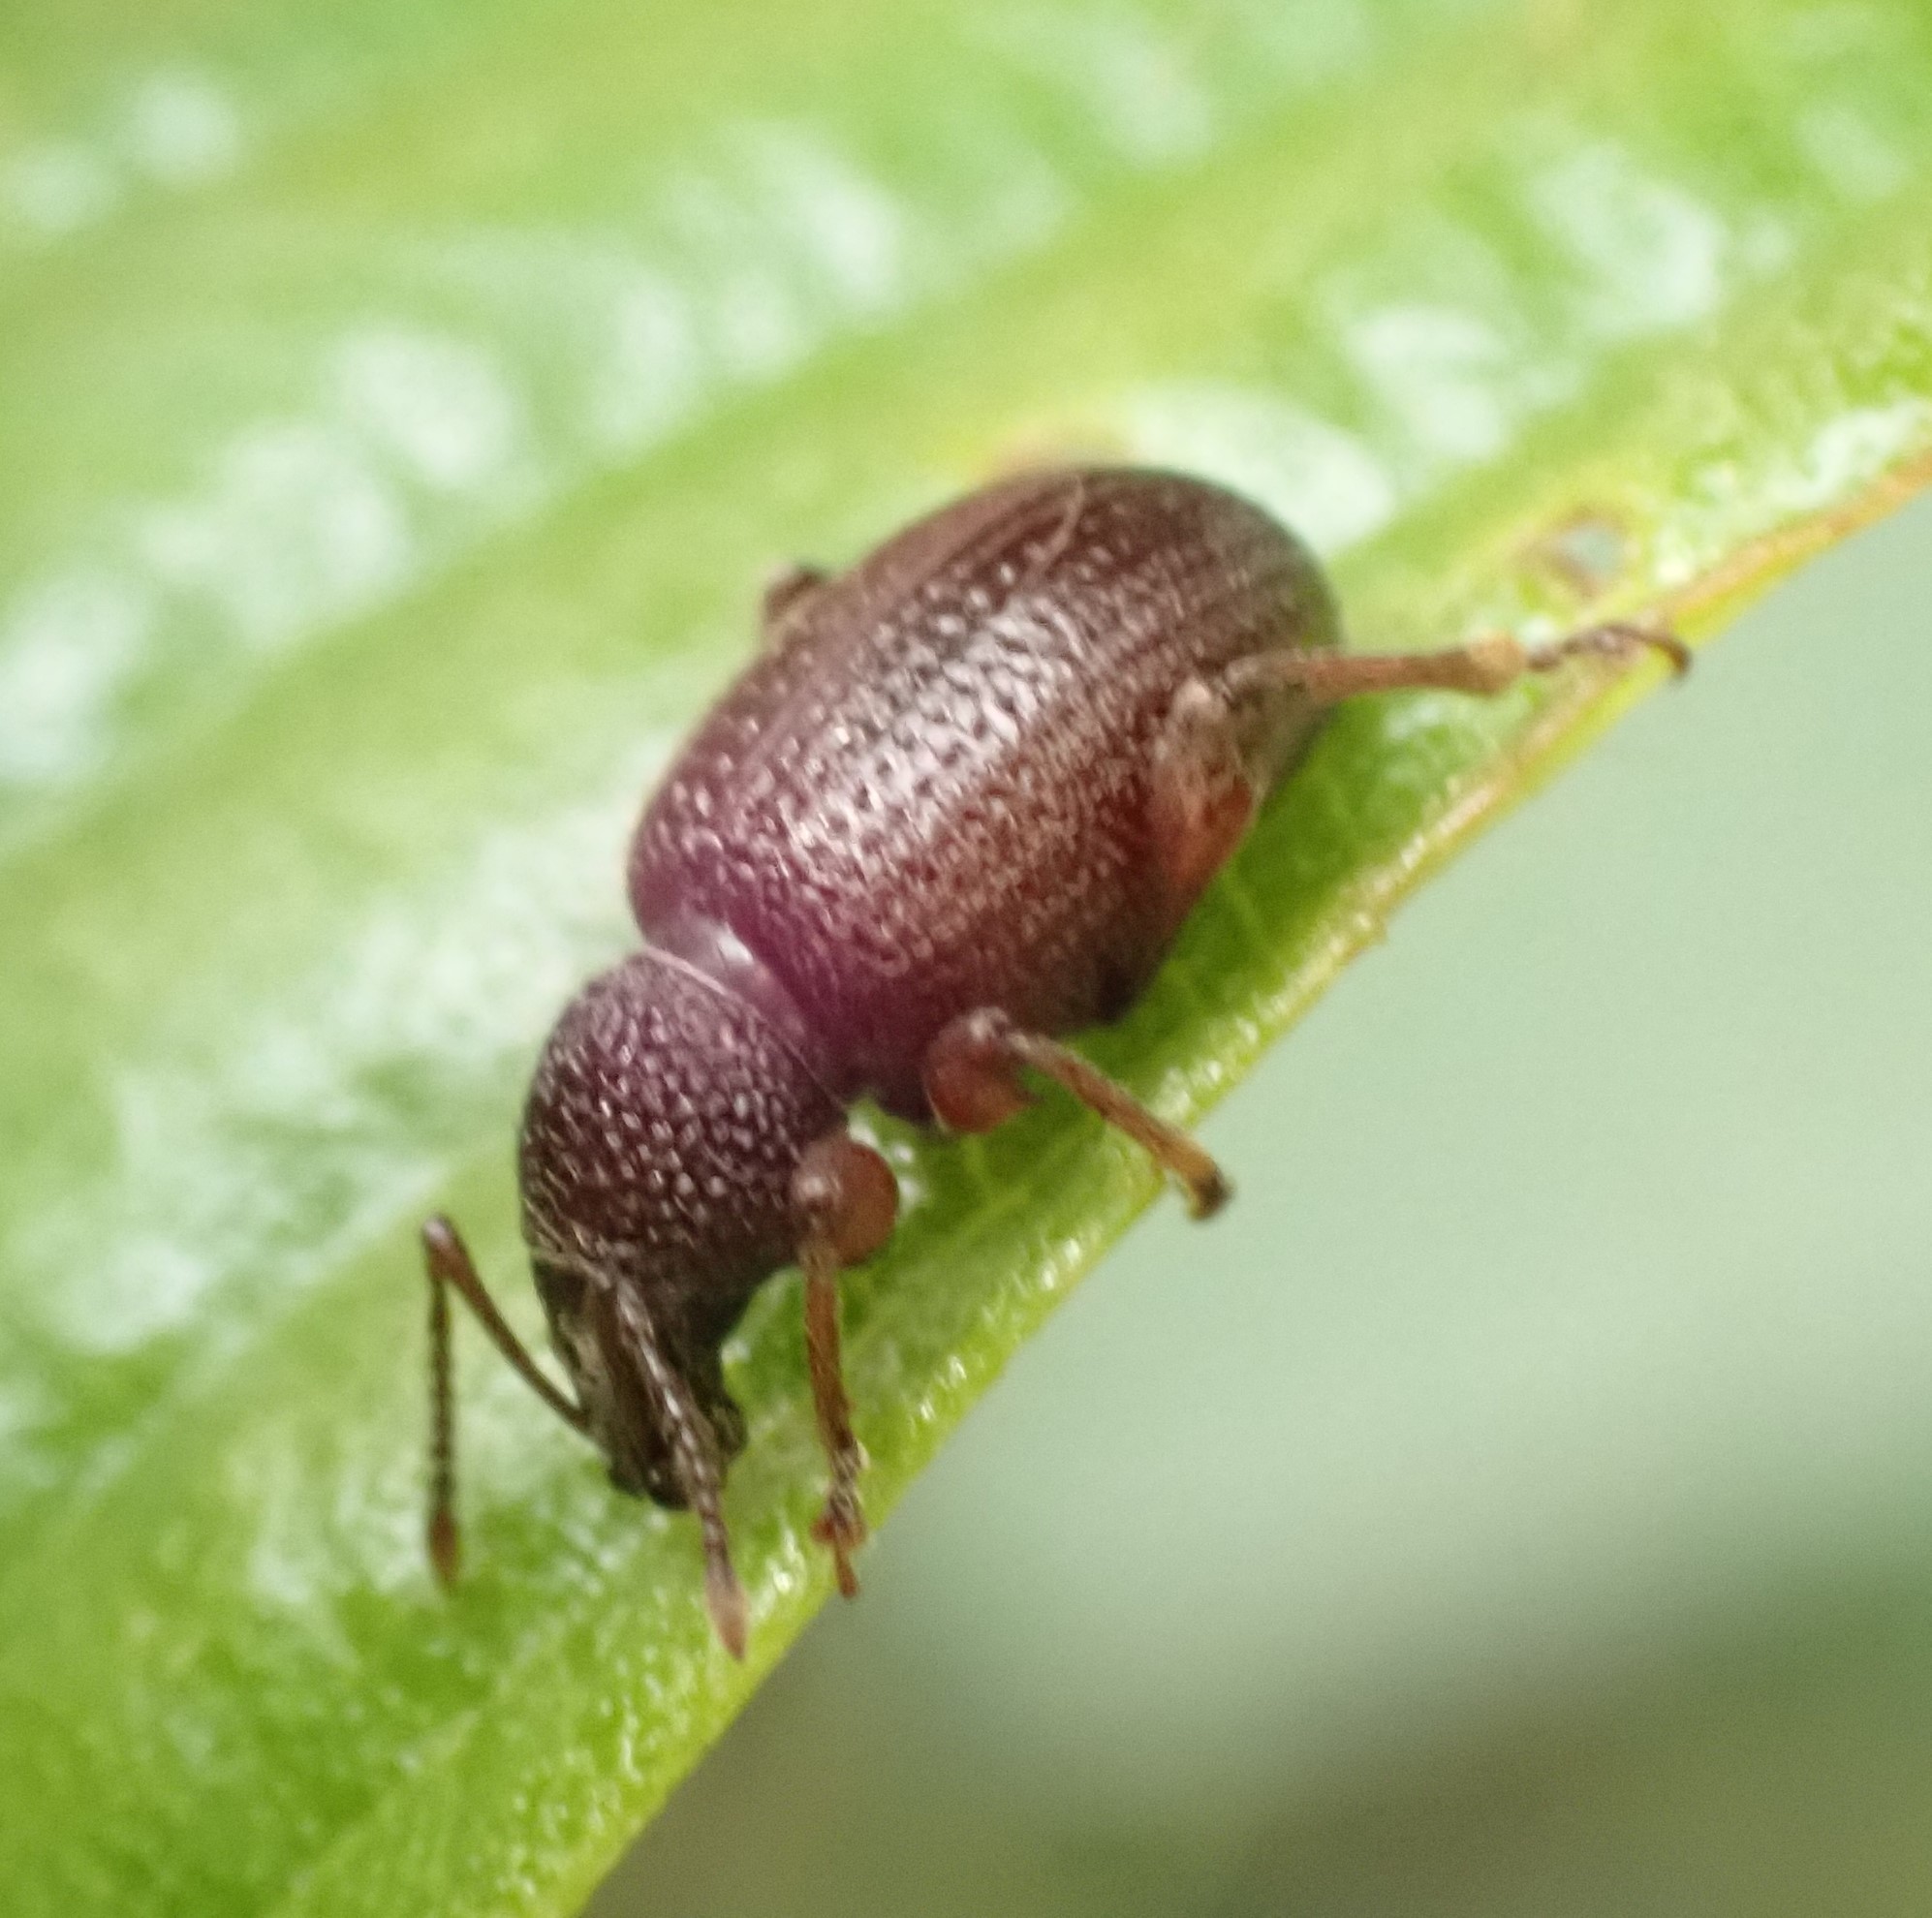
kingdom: Animalia
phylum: Arthropoda
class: Insecta
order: Coleoptera
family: Curculionidae
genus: Otiorhynchus
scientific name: Otiorhynchus ovatus
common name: Strawberry root weevil
